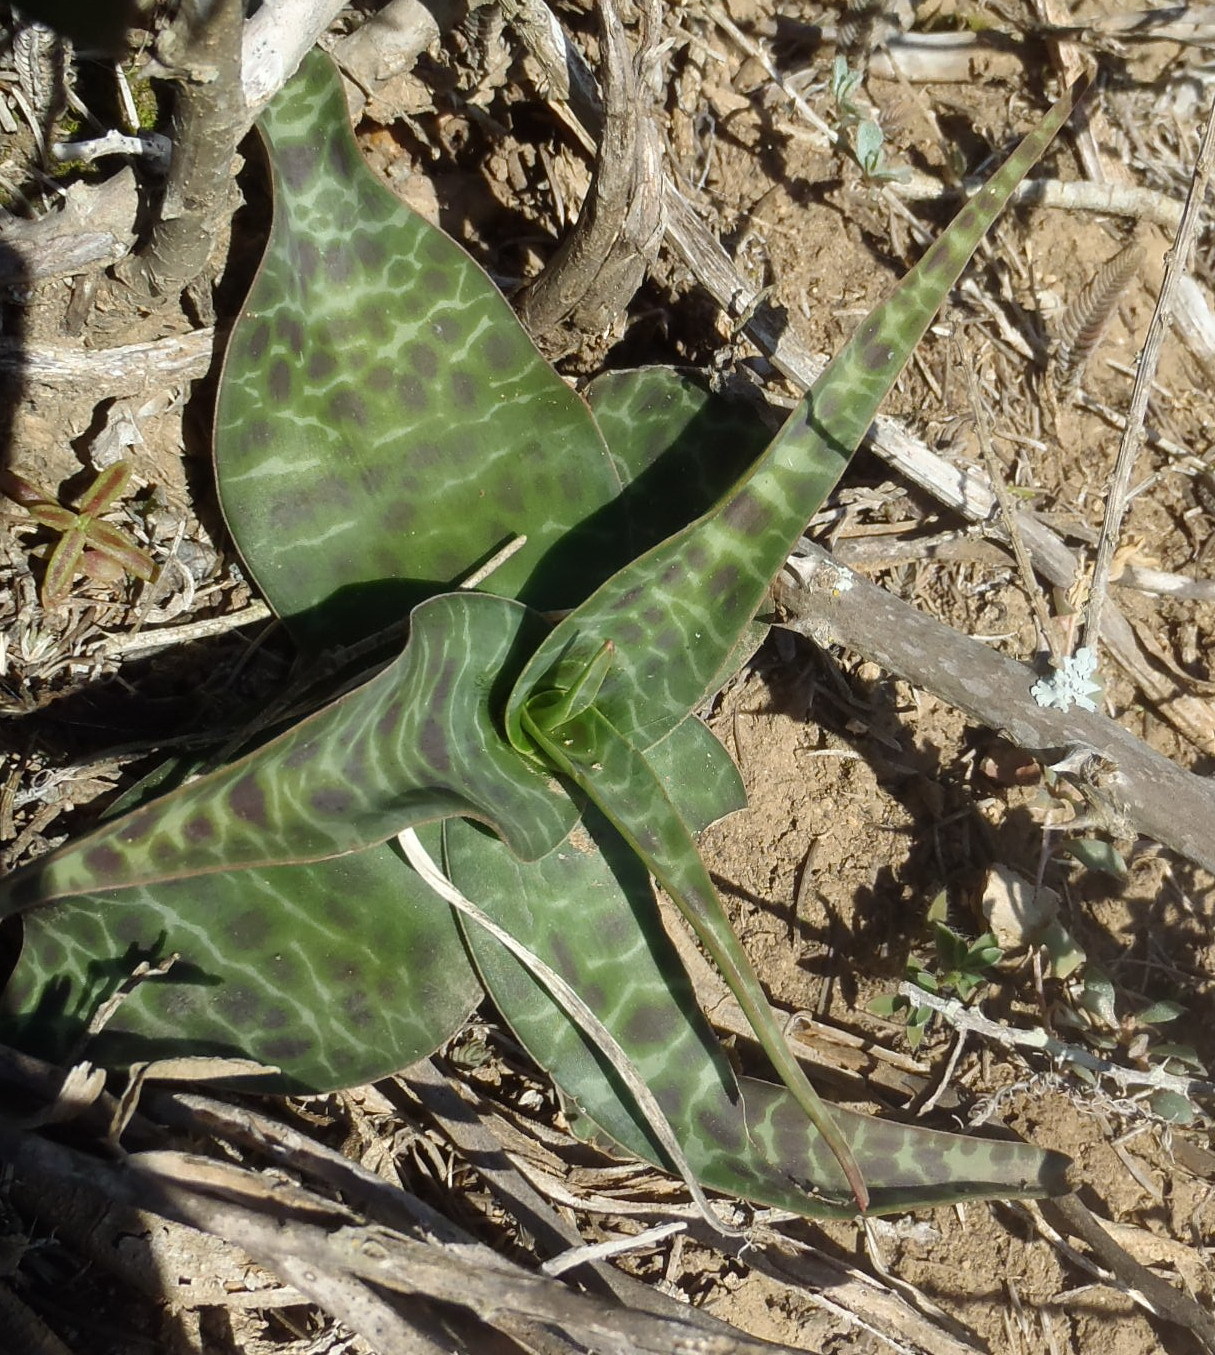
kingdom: Plantae
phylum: Tracheophyta
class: Liliopsida
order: Asparagales
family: Asparagaceae
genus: Ledebouria
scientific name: Ledebouria revoluta
